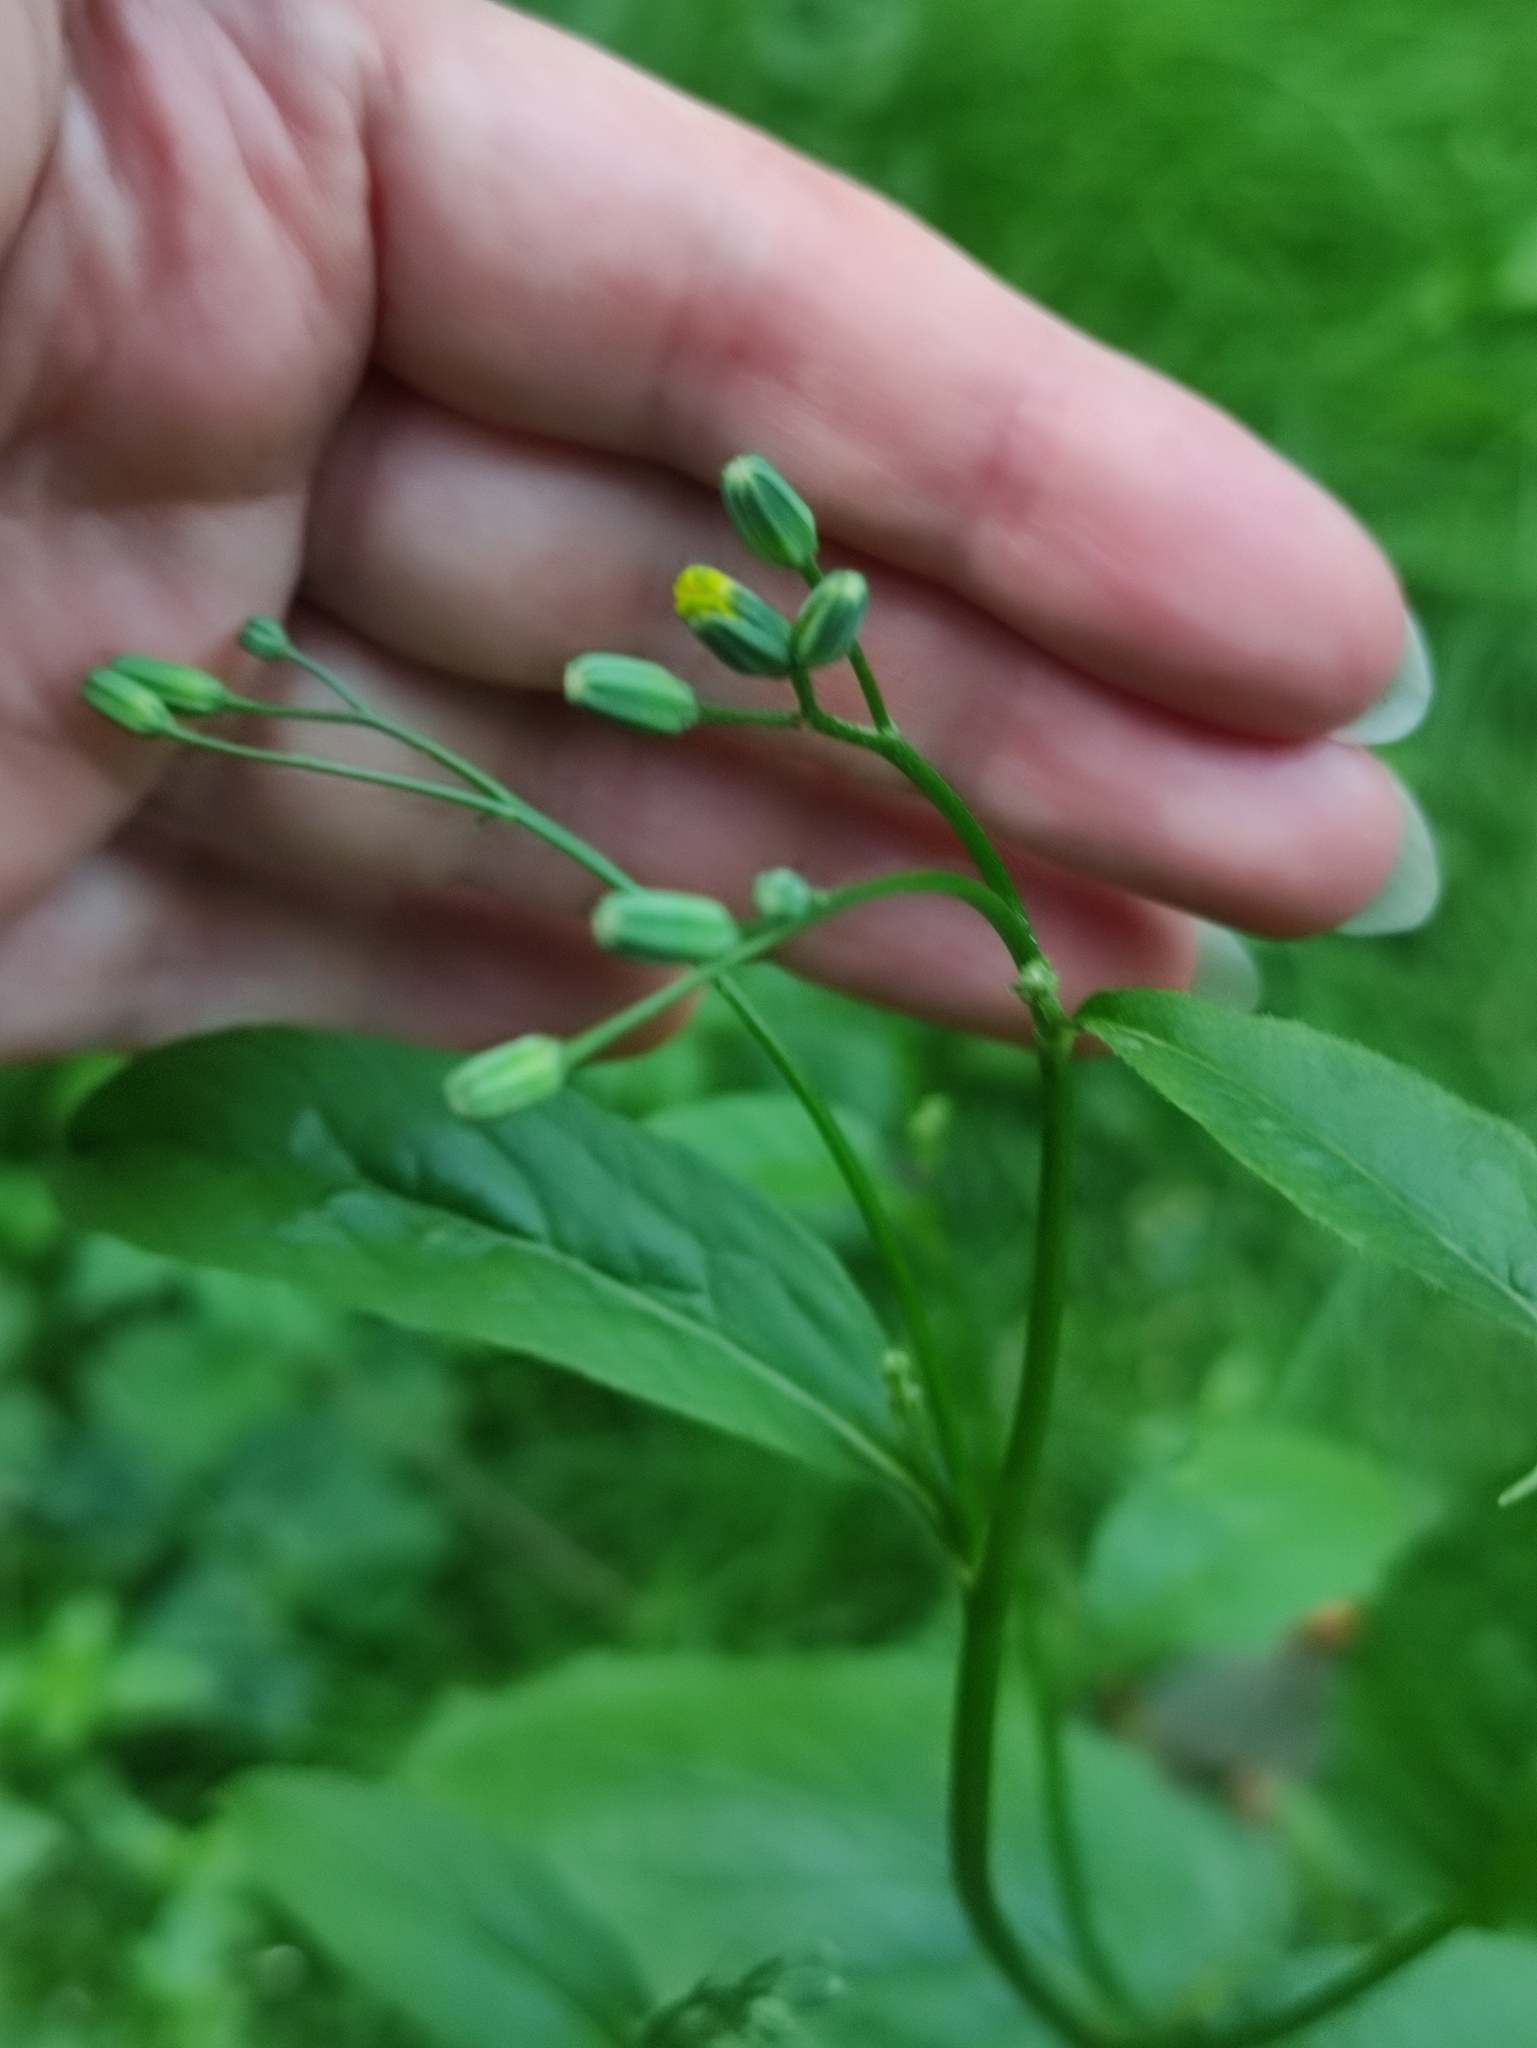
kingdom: Plantae
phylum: Tracheophyta
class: Magnoliopsida
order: Asterales
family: Asteraceae
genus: Lapsana
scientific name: Lapsana communis
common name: Nipplewort
